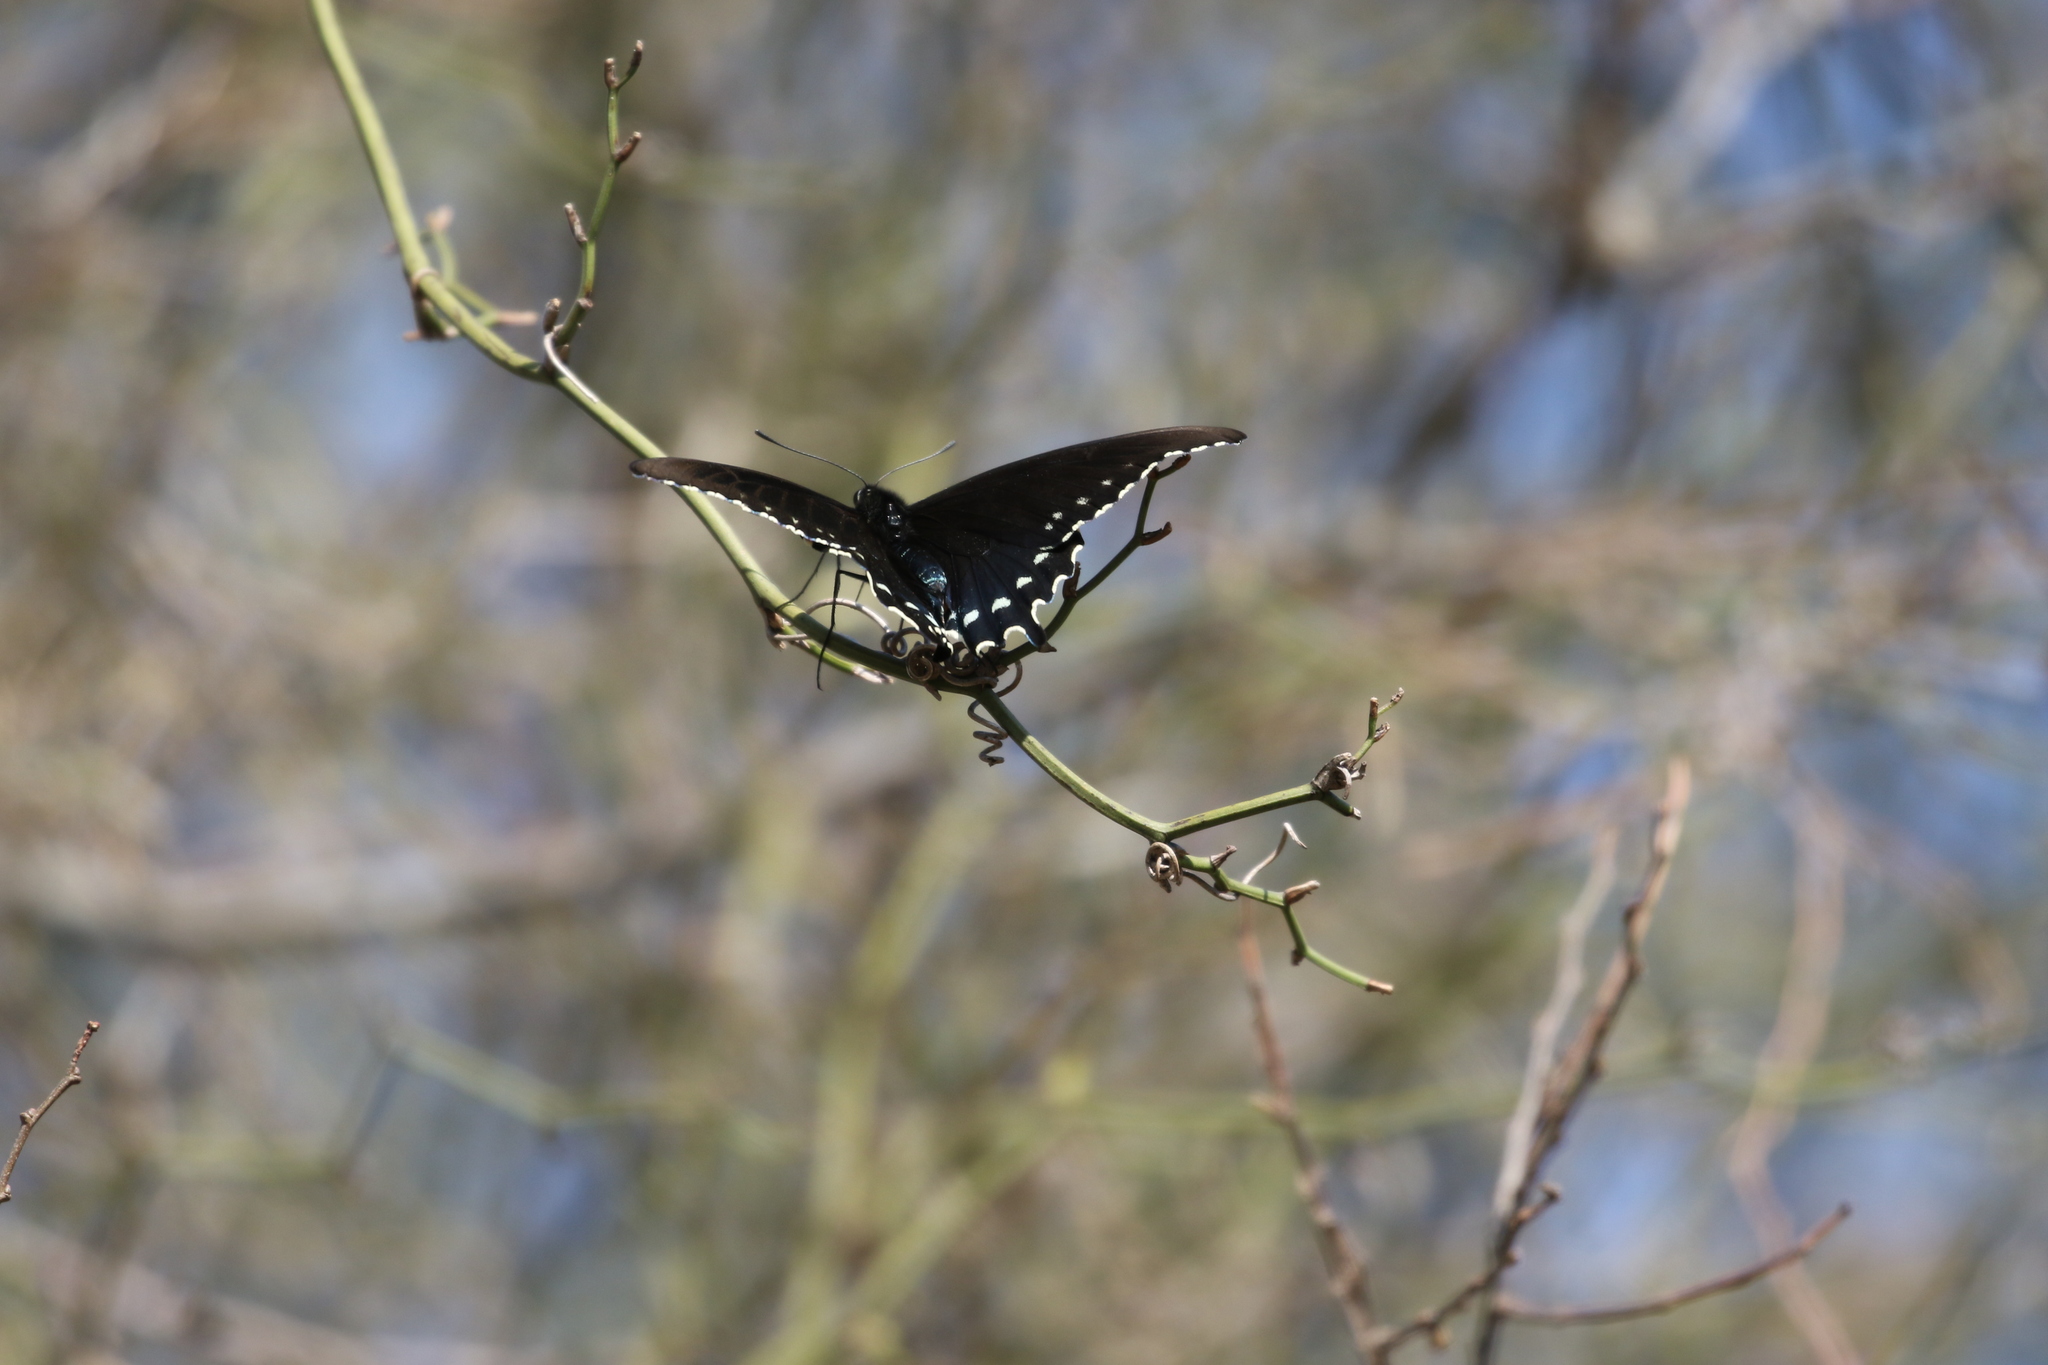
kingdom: Animalia
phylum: Arthropoda
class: Insecta
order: Lepidoptera
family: Papilionidae
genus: Battus
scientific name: Battus philenor
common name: Pipevine swallowtail
